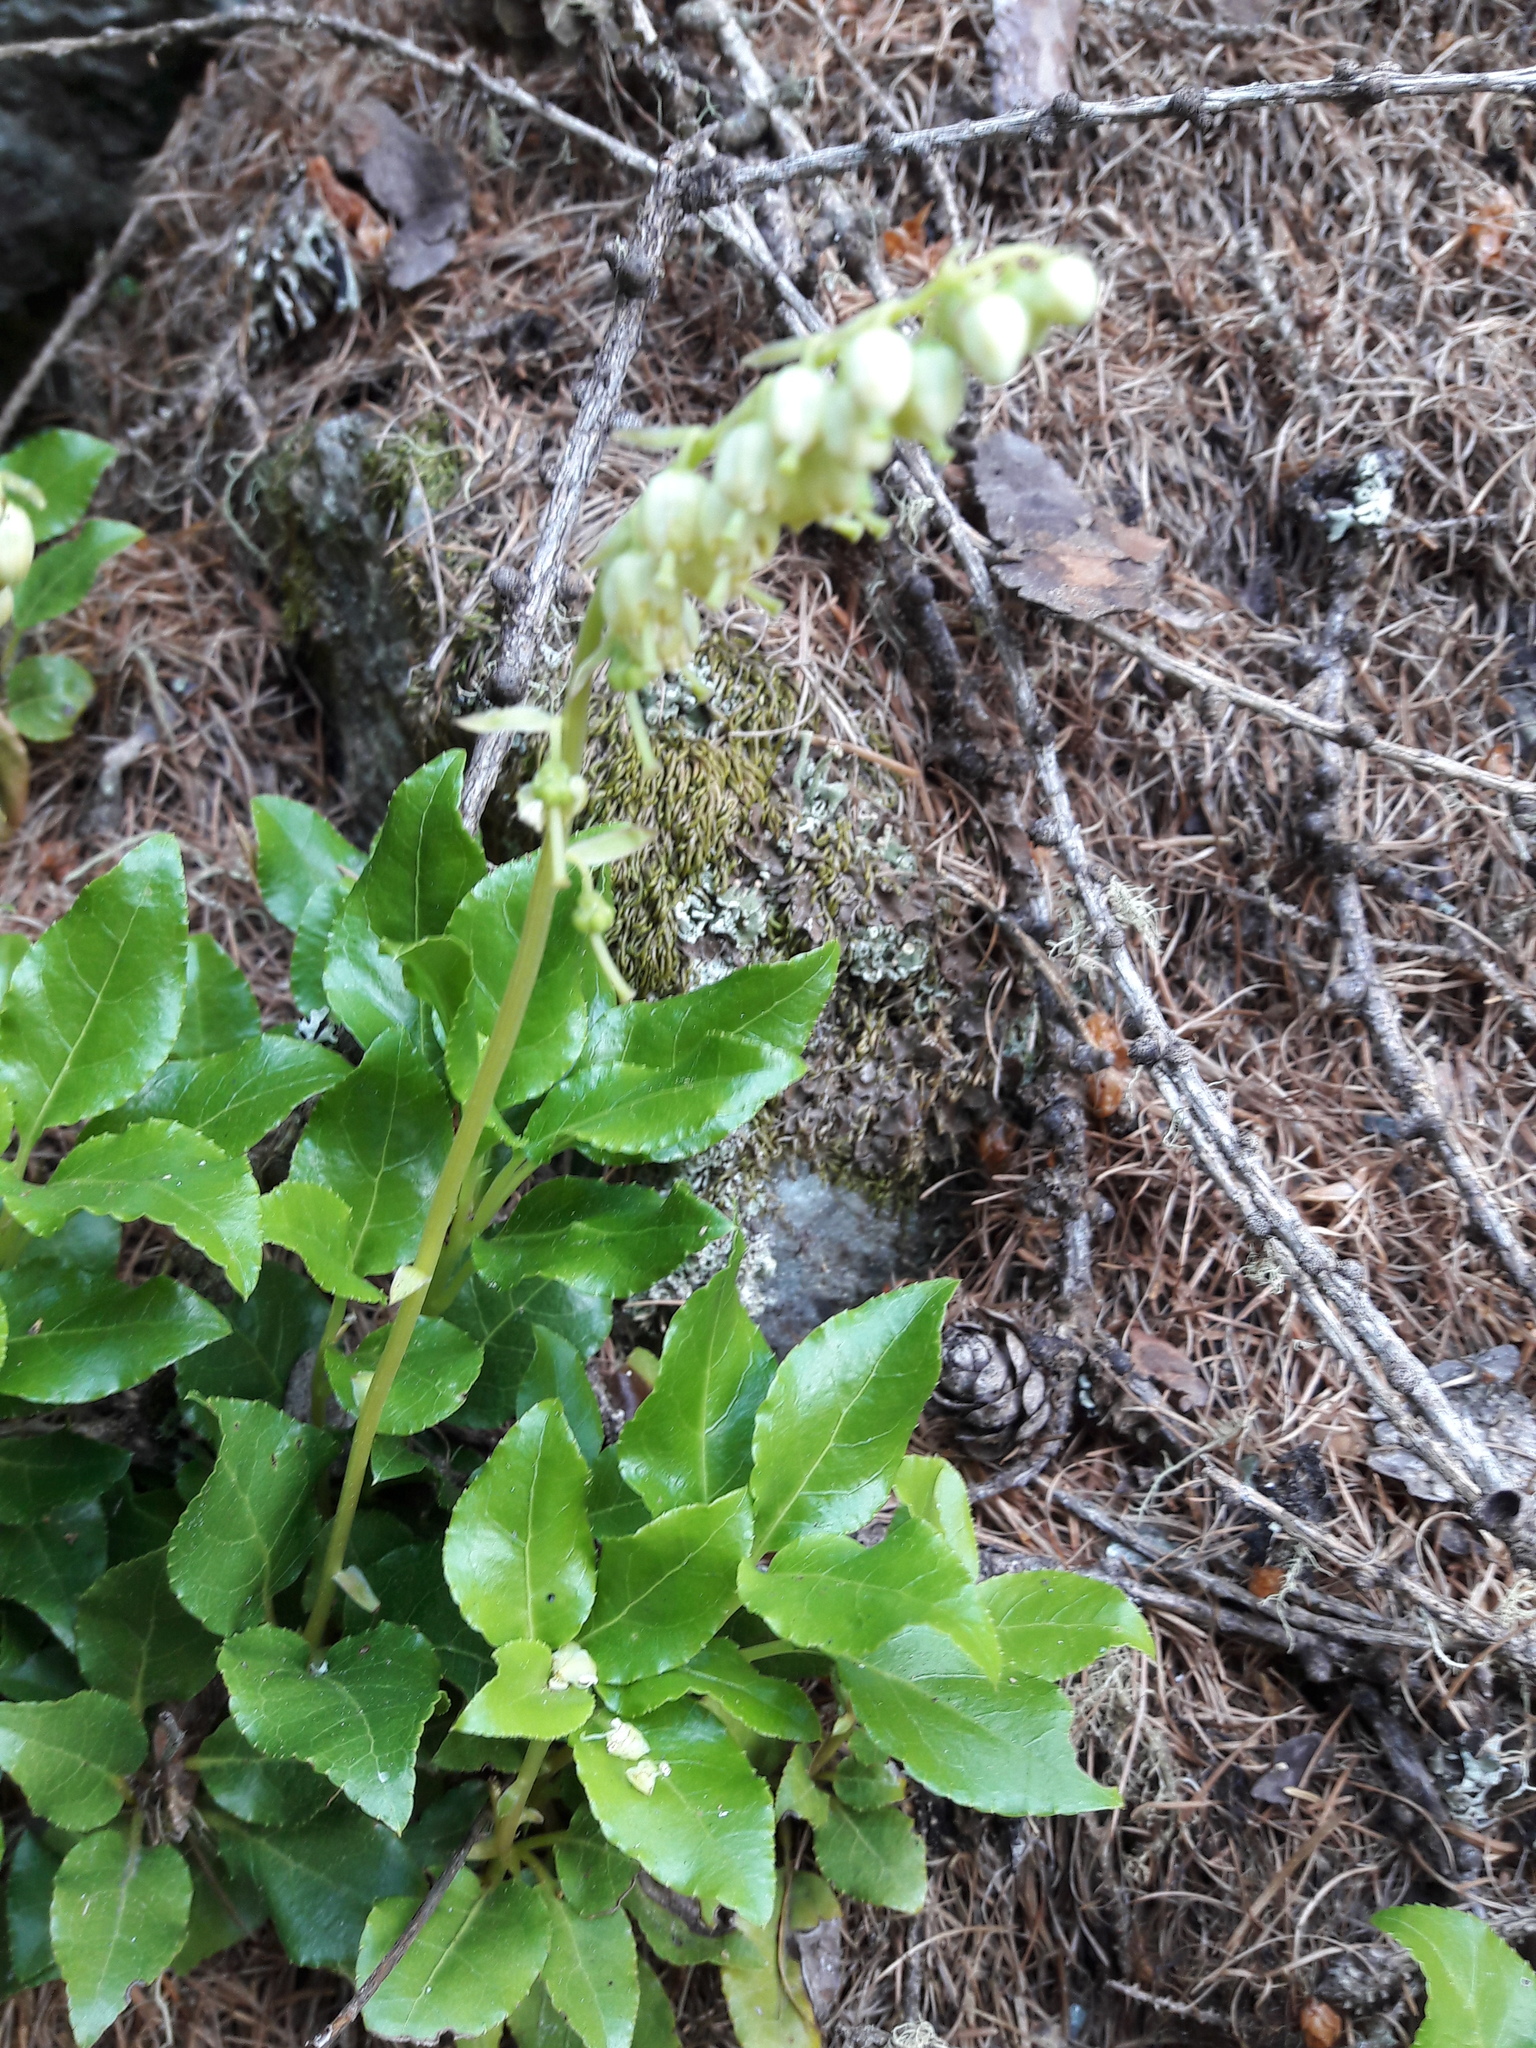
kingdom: Plantae
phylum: Tracheophyta
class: Magnoliopsida
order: Ericales
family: Ericaceae
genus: Orthilia
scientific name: Orthilia secunda
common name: One-sided orthilia
